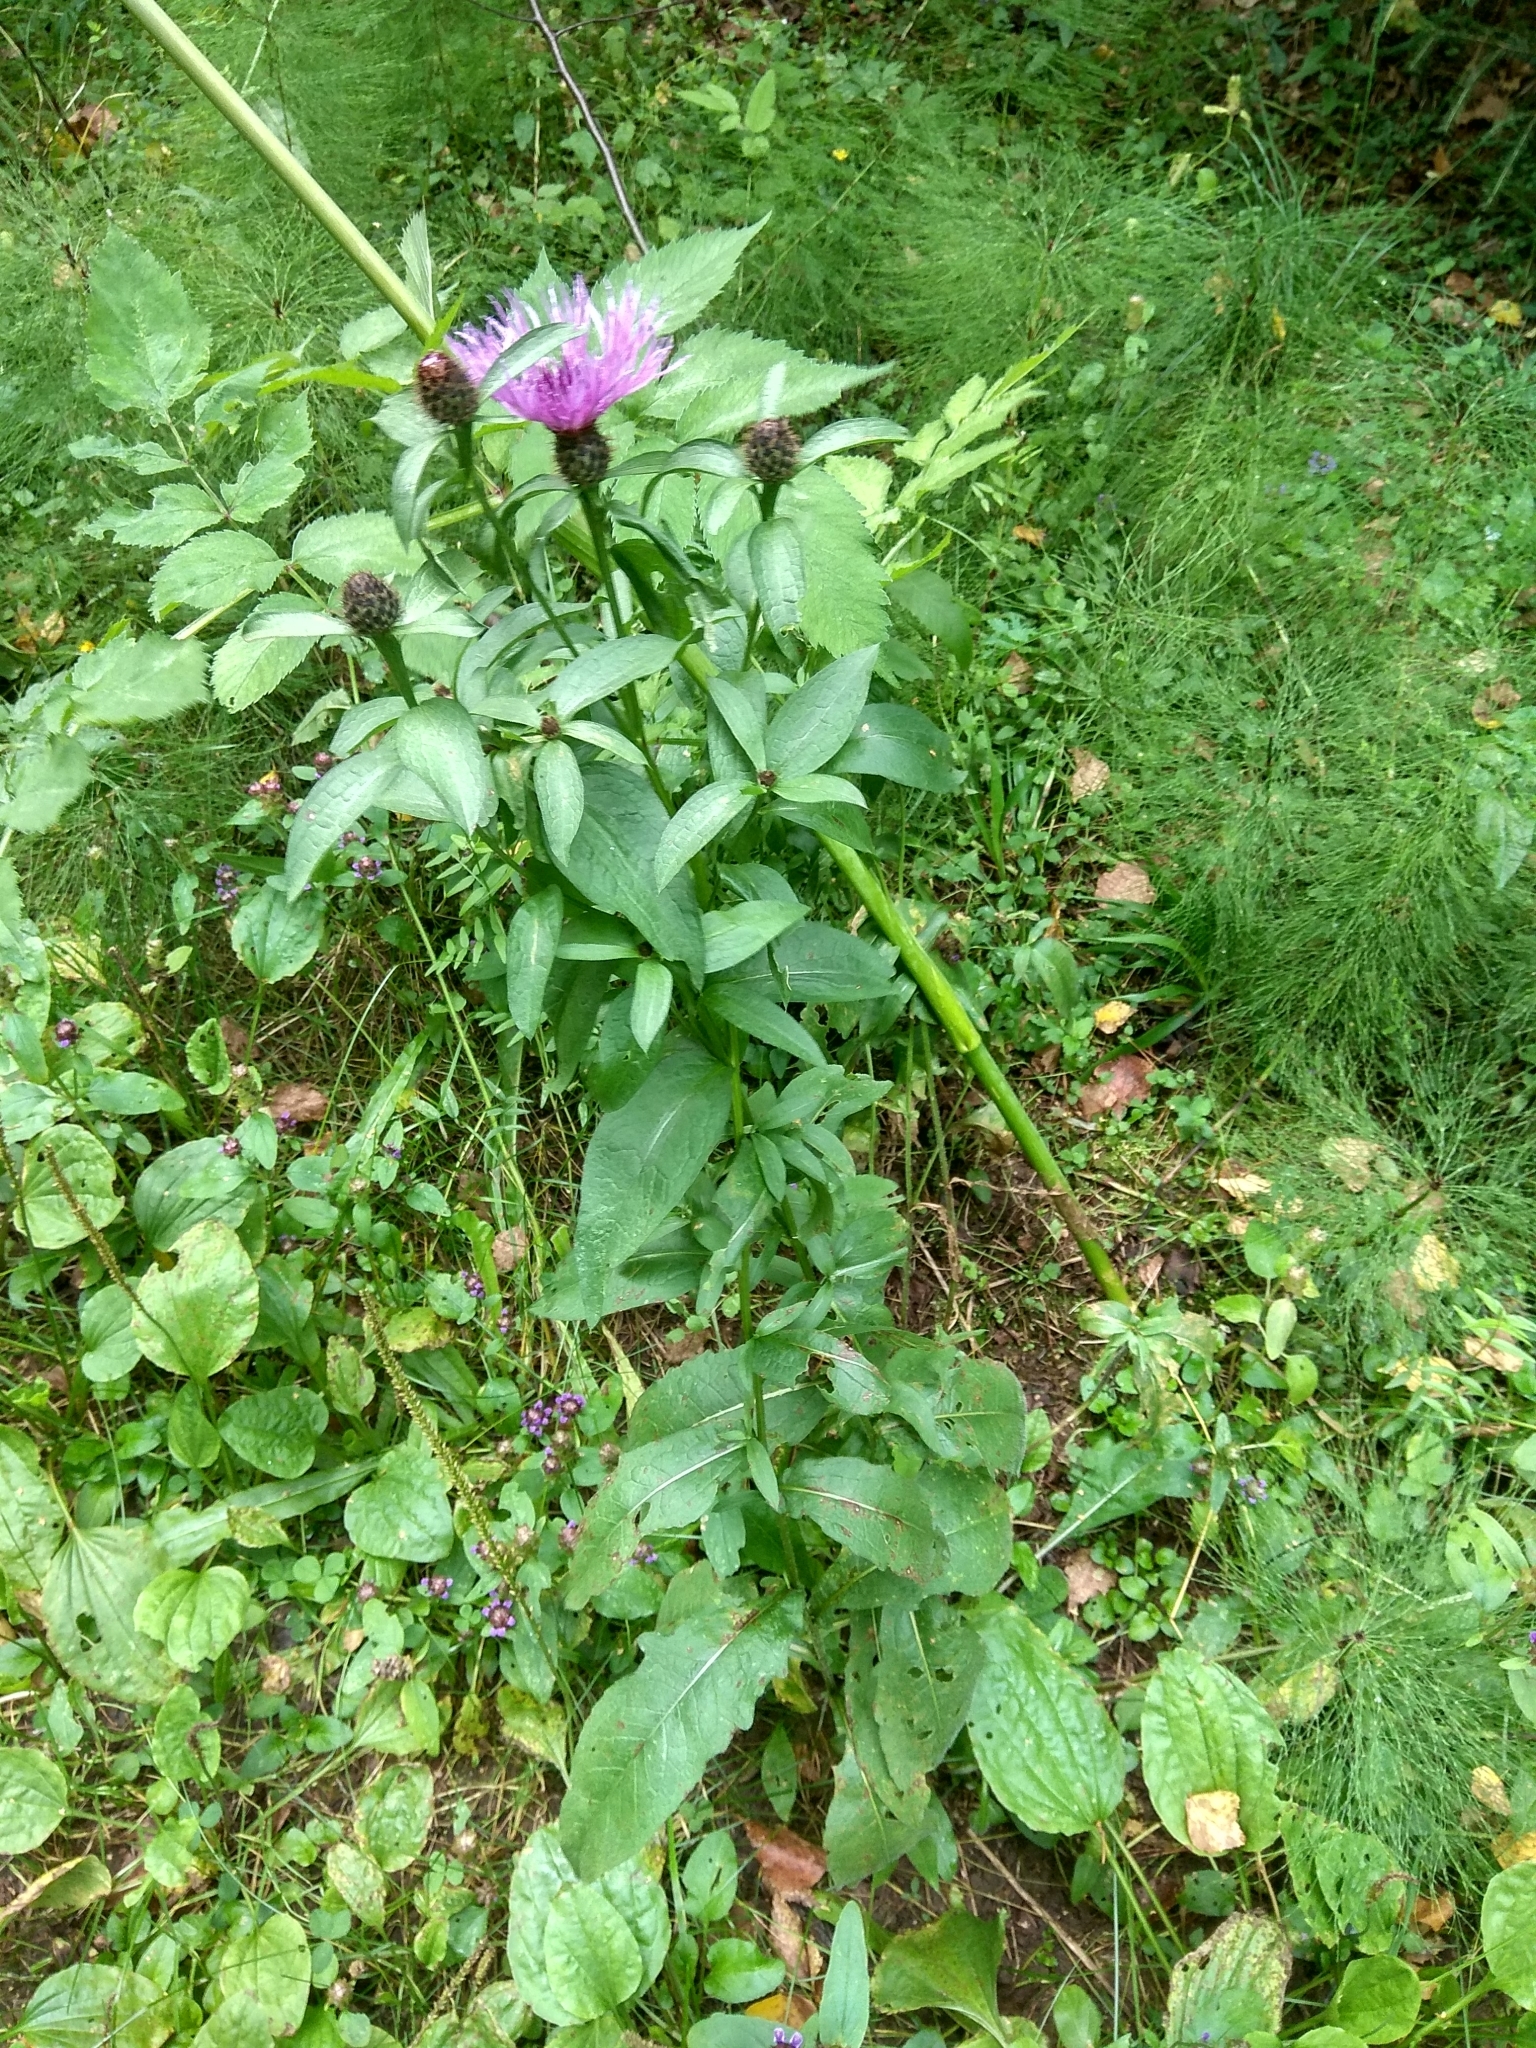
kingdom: Plantae
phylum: Tracheophyta
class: Magnoliopsida
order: Asterales
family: Asteraceae
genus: Centaurea
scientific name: Centaurea phrygia
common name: Wig knapweed
